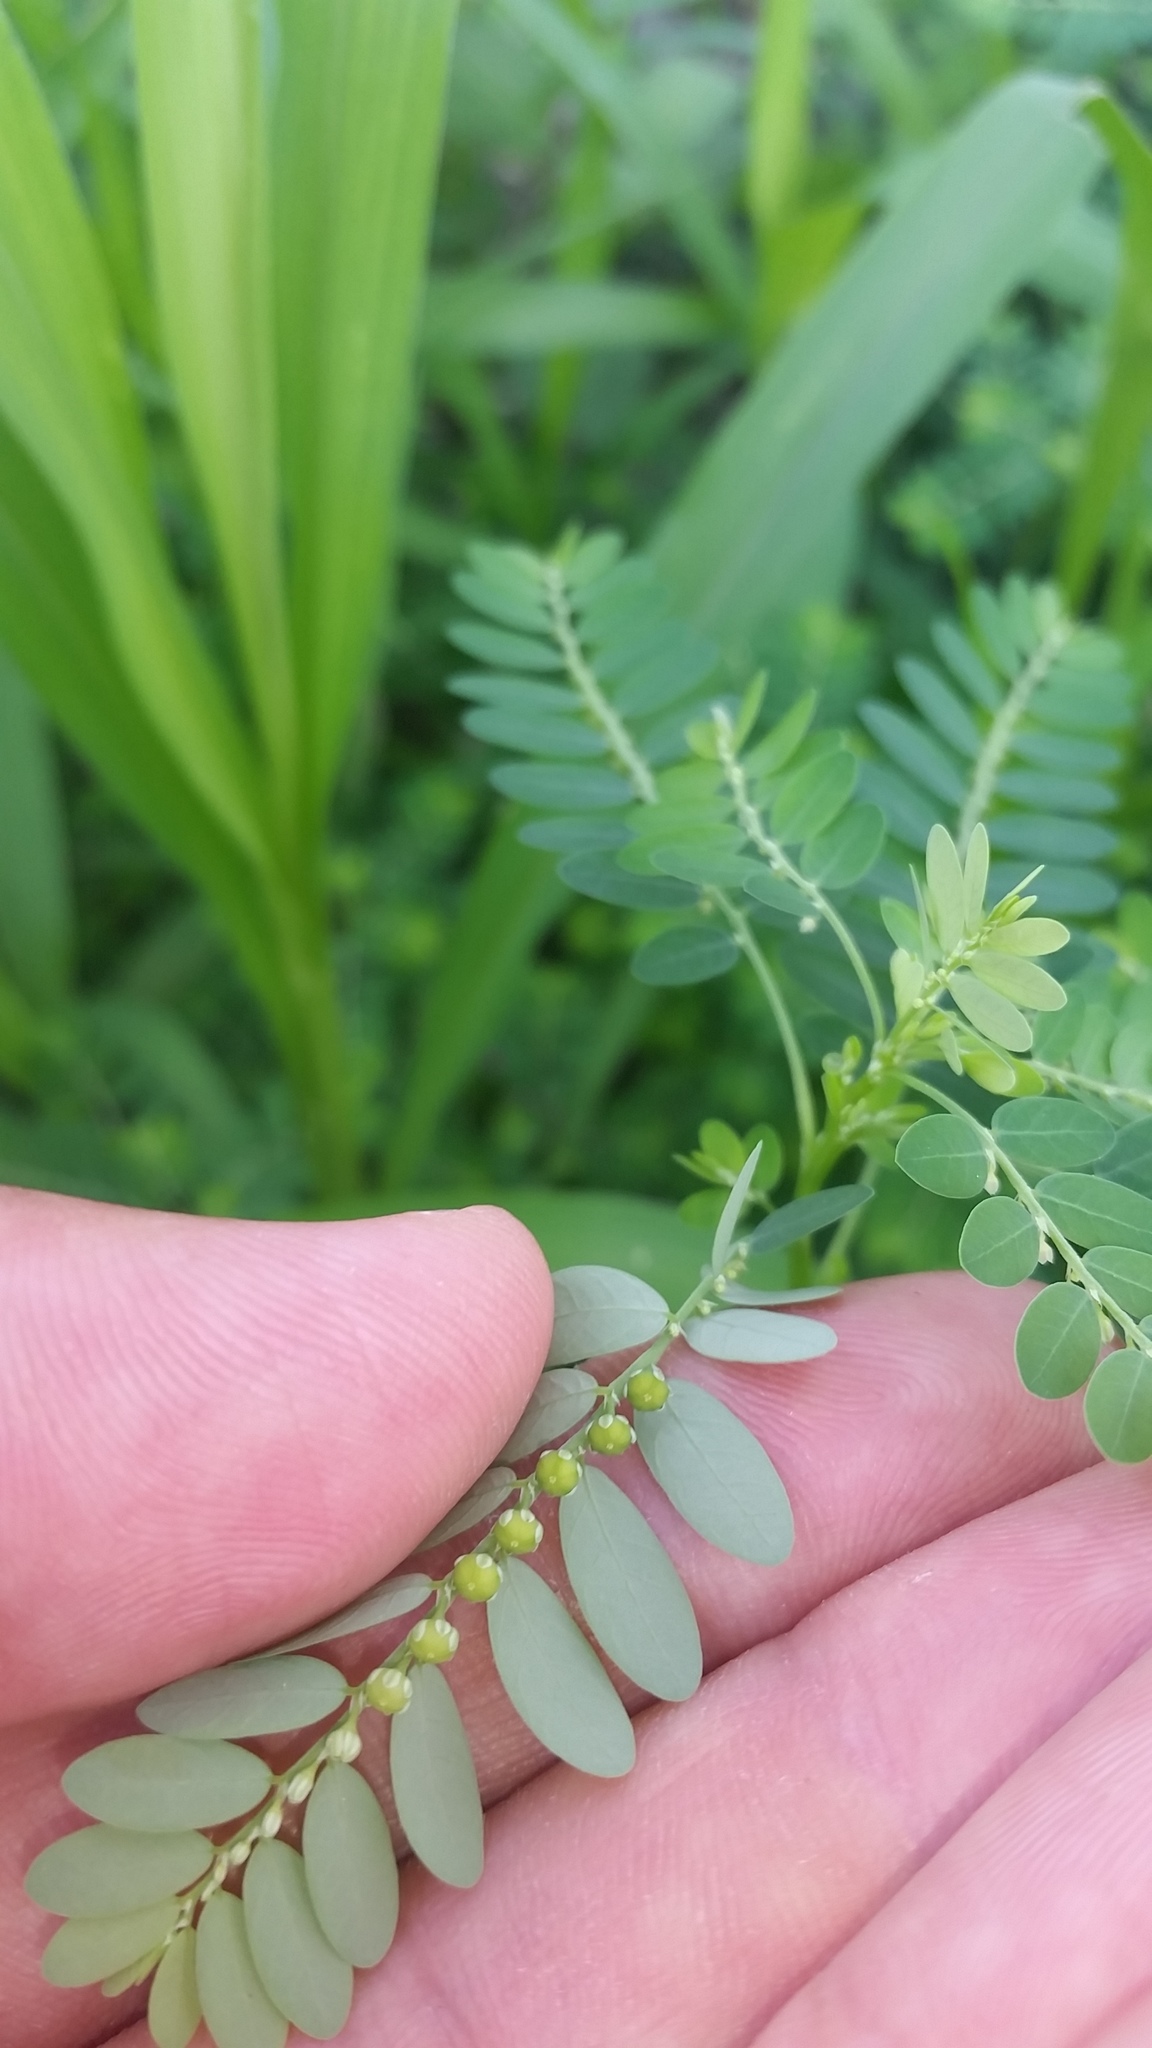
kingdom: Plantae
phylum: Tracheophyta
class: Magnoliopsida
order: Malpighiales
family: Phyllanthaceae
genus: Phyllanthus
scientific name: Phyllanthus fraternus
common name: Gulf leaf-flower
